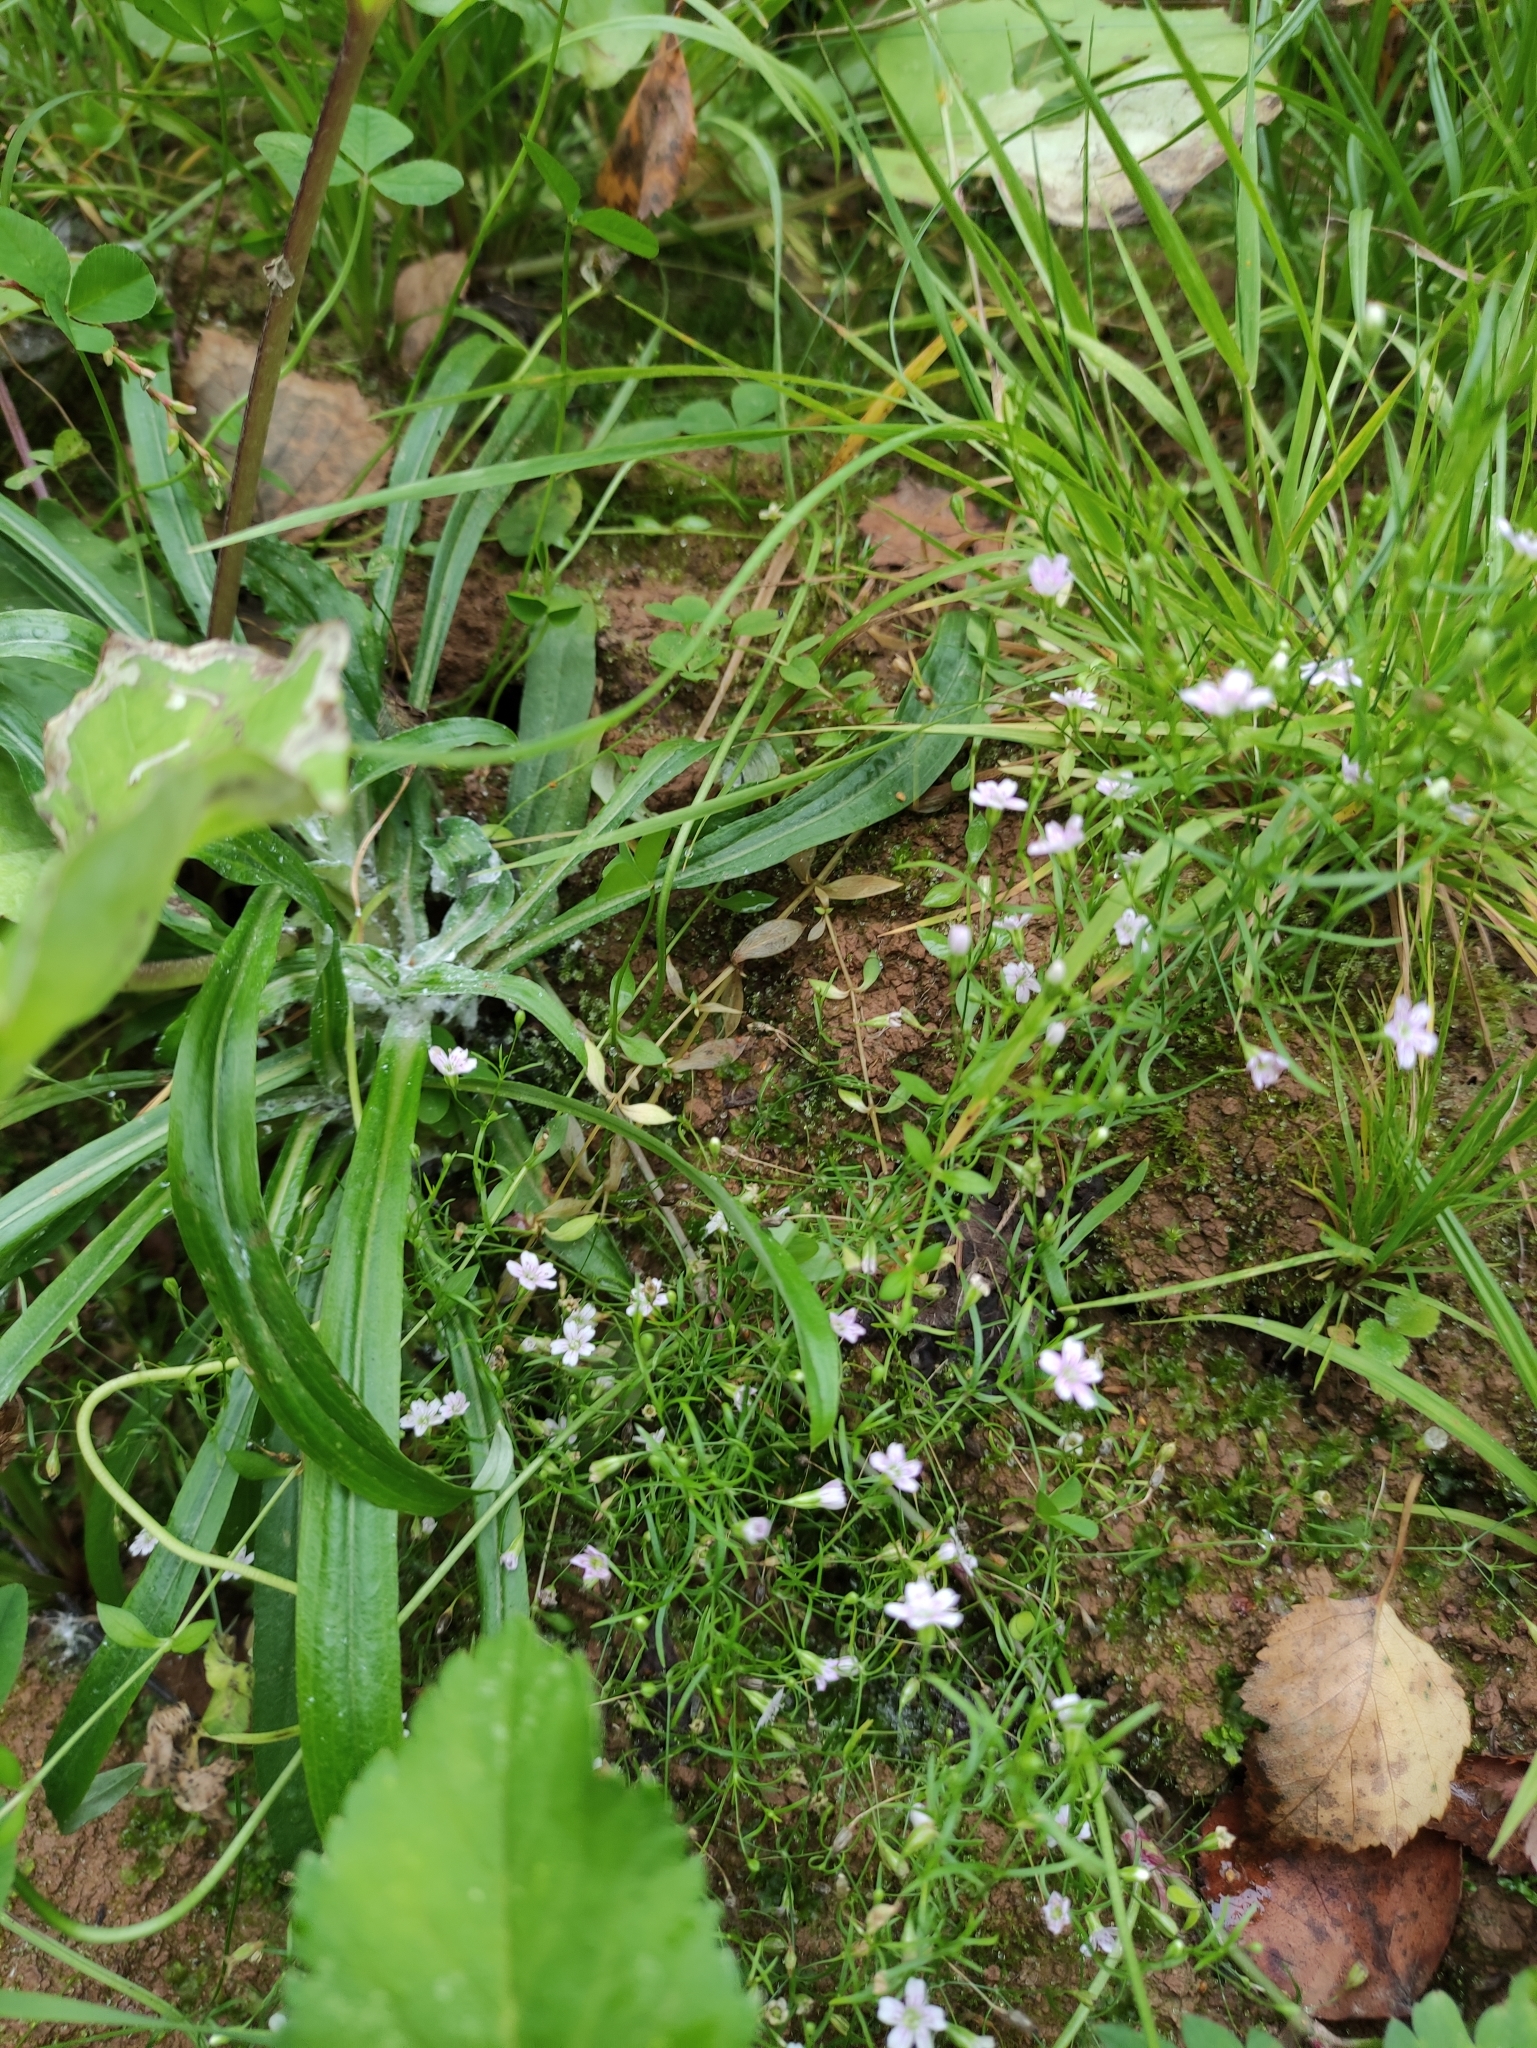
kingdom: Plantae
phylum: Tracheophyta
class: Magnoliopsida
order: Caryophyllales
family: Caryophyllaceae
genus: Psammophiliella
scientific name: Psammophiliella muralis
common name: Cushion baby's-breath
